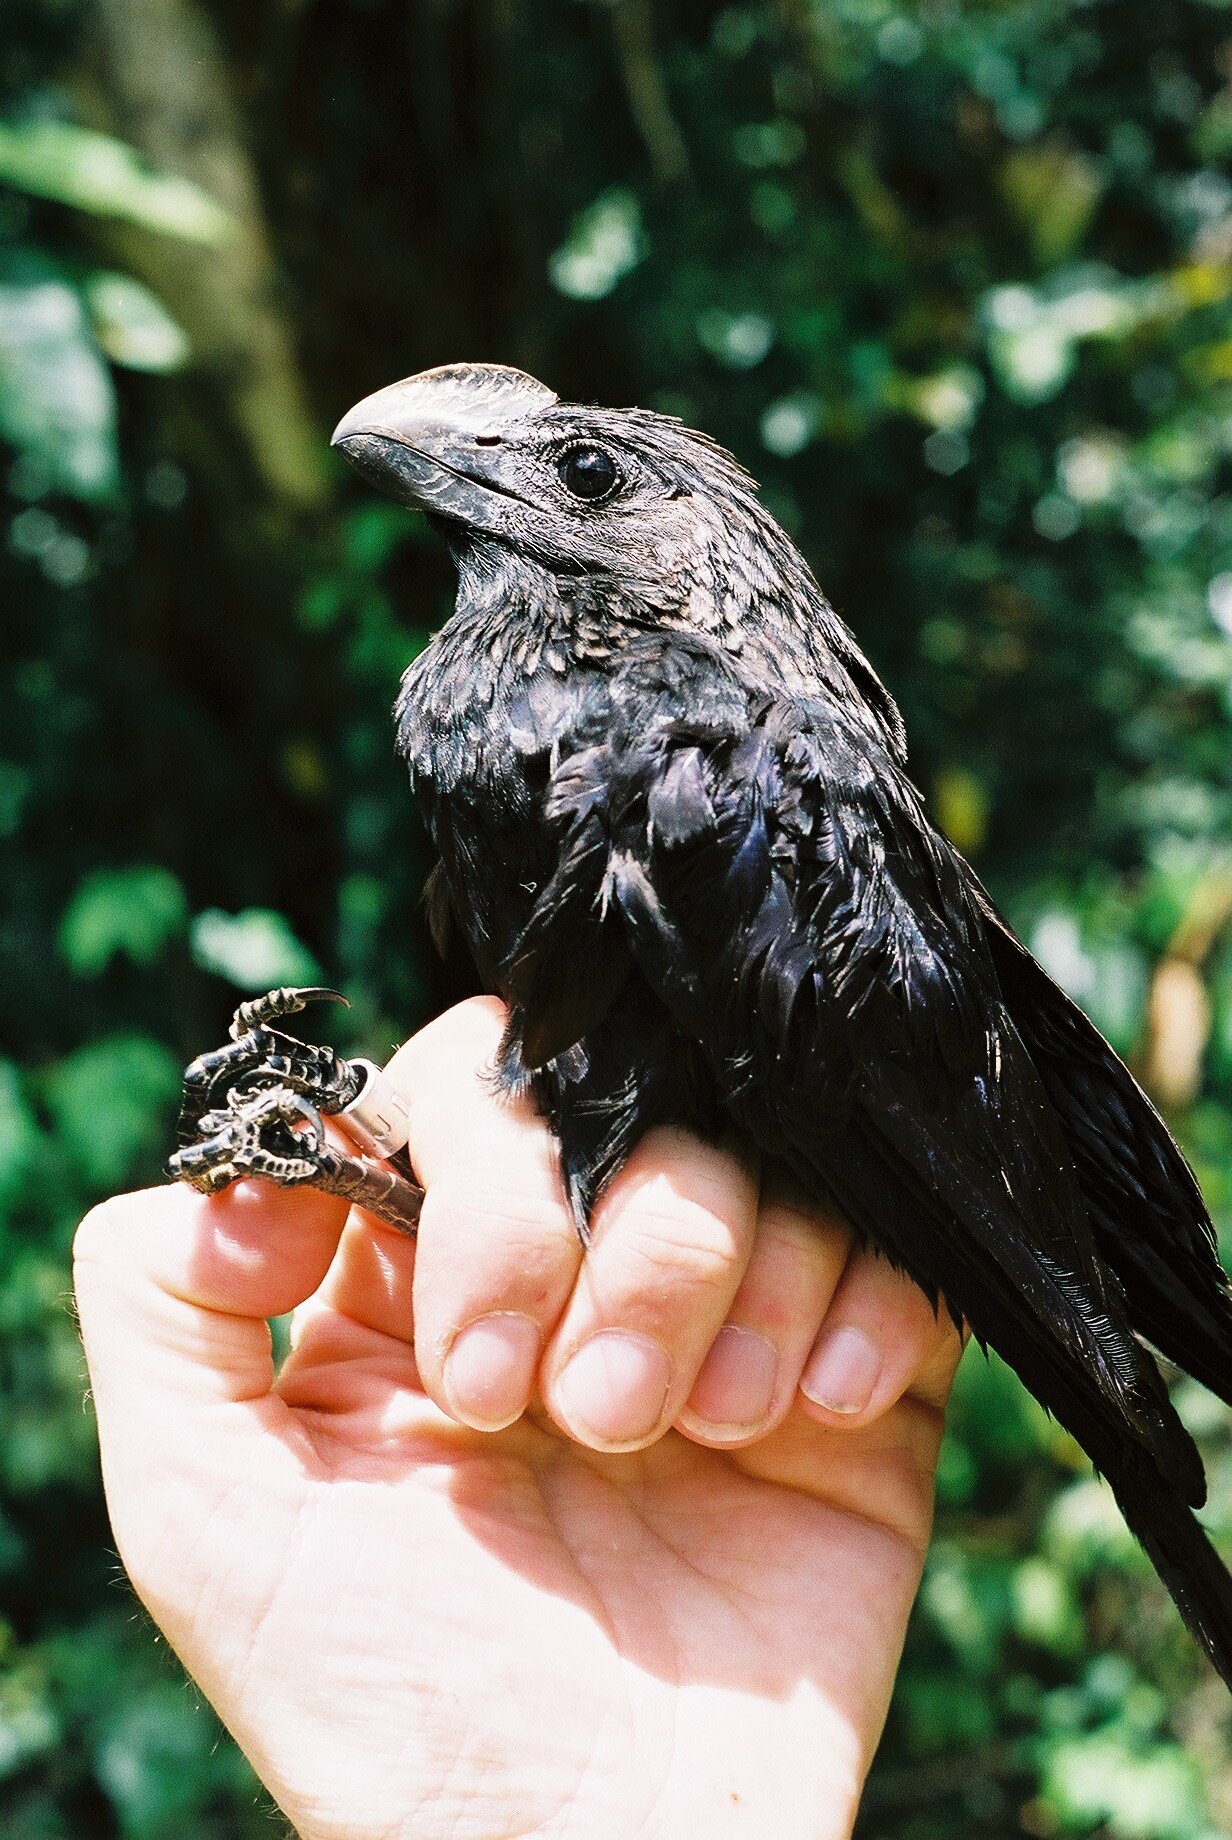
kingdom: Animalia
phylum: Chordata
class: Aves
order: Cuculiformes
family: Cuculidae
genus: Crotophaga
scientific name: Crotophaga ani
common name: Smooth-billed ani
